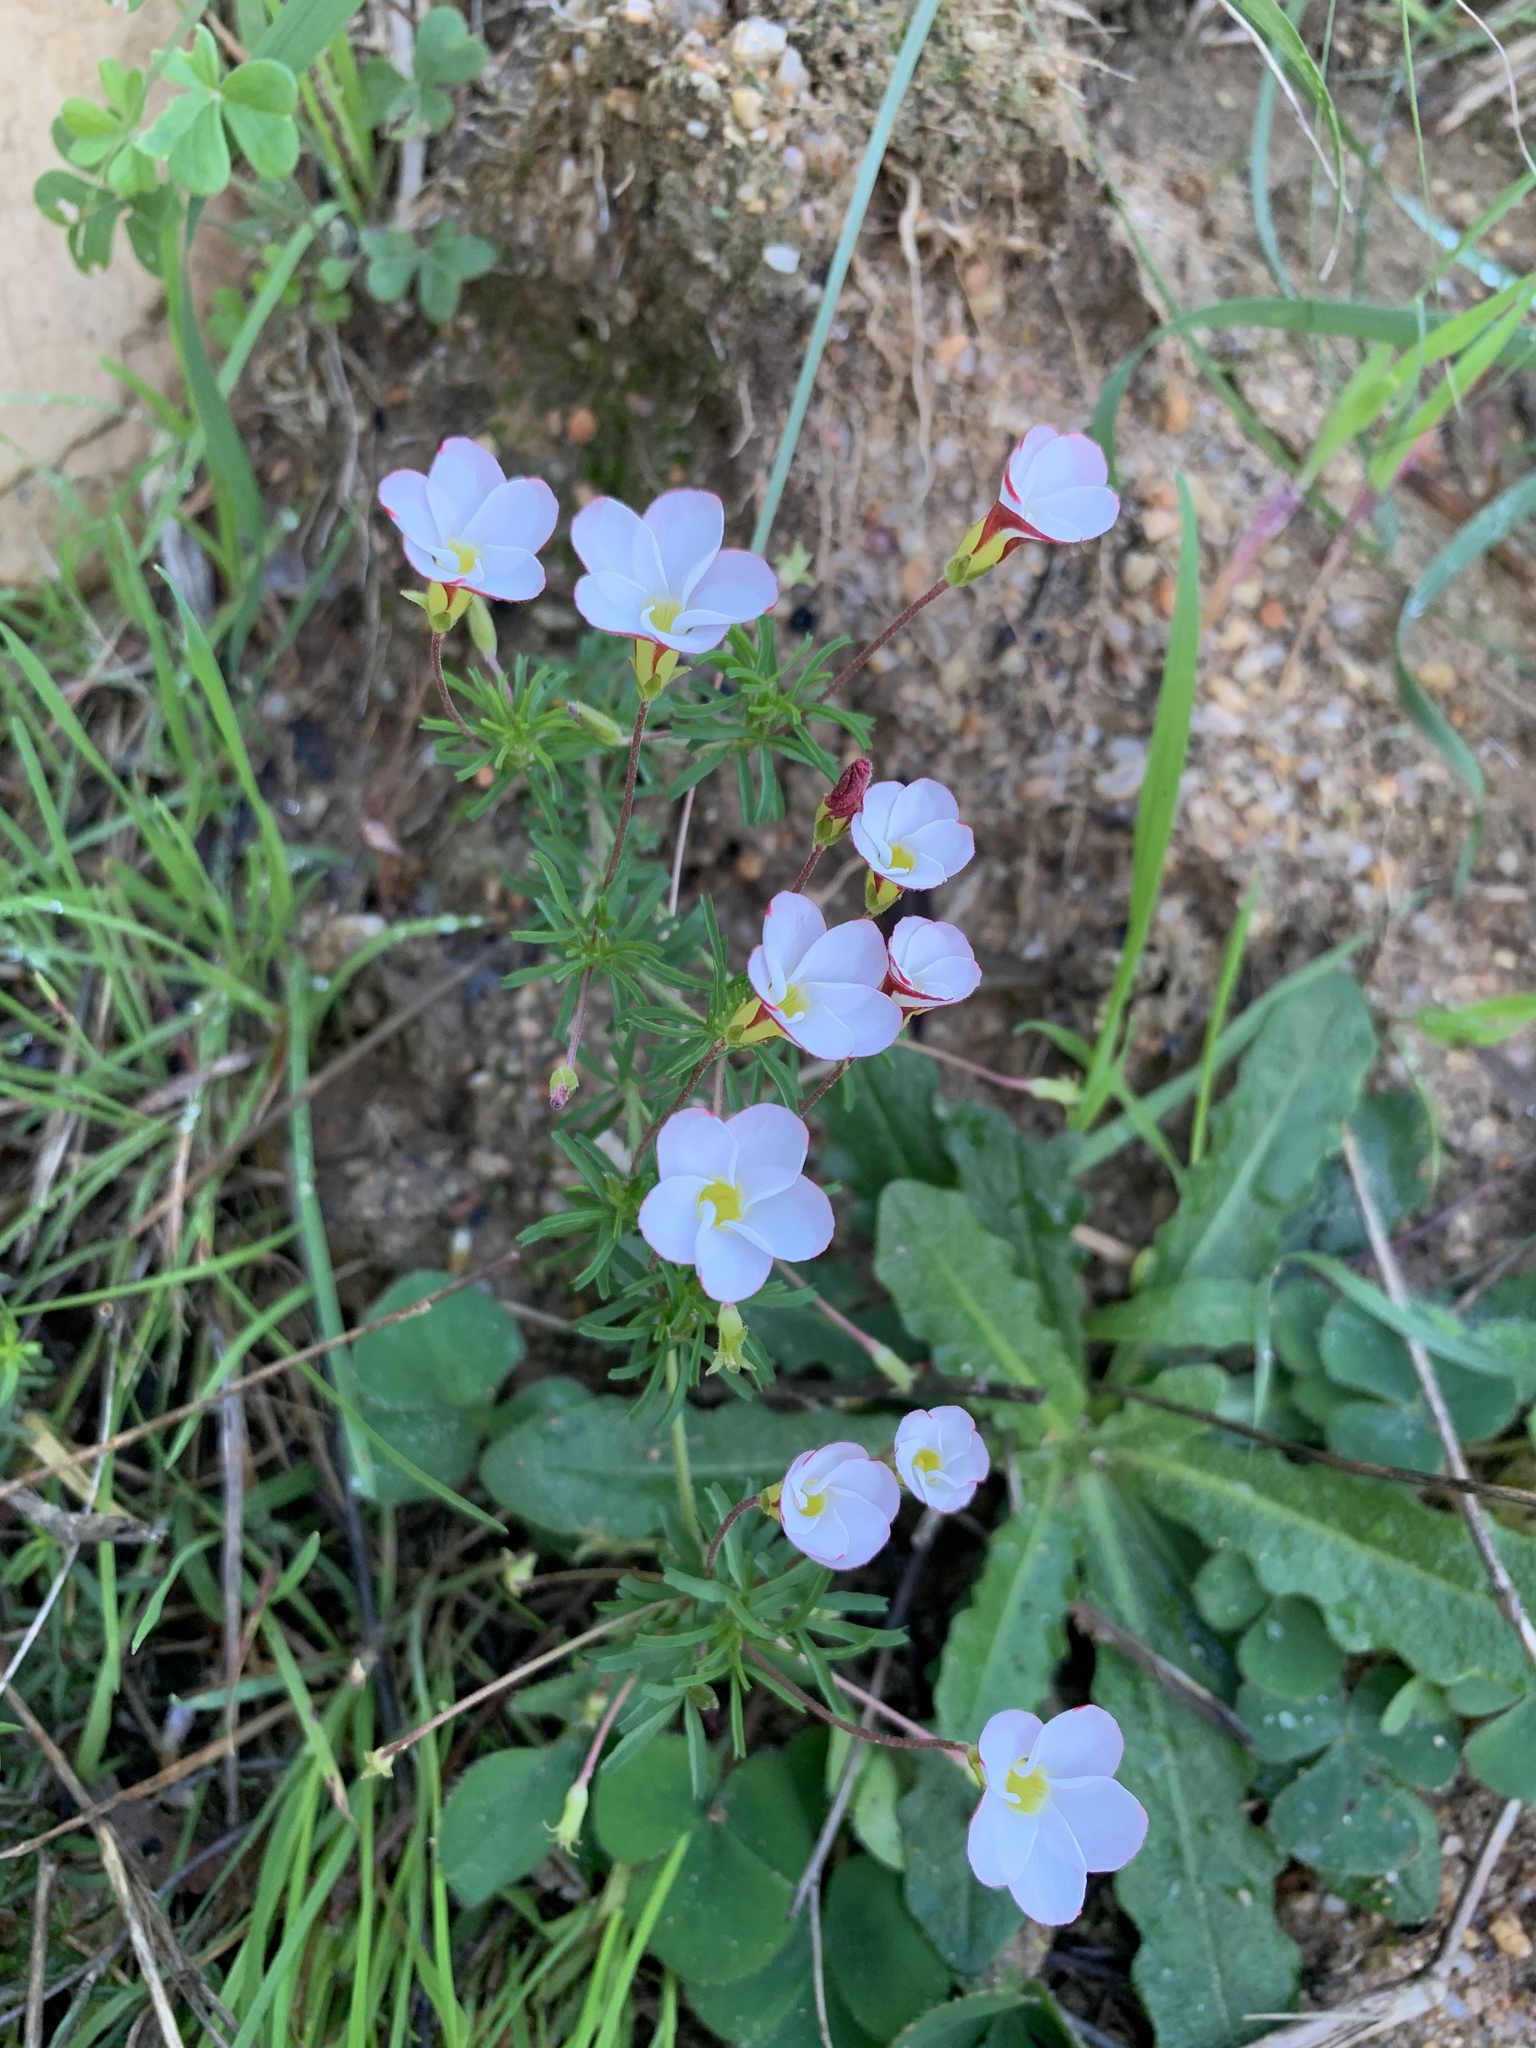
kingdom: Plantae
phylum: Tracheophyta
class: Magnoliopsida
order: Oxalidales
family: Oxalidaceae
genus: Oxalis
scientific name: Oxalis tenuifolia
